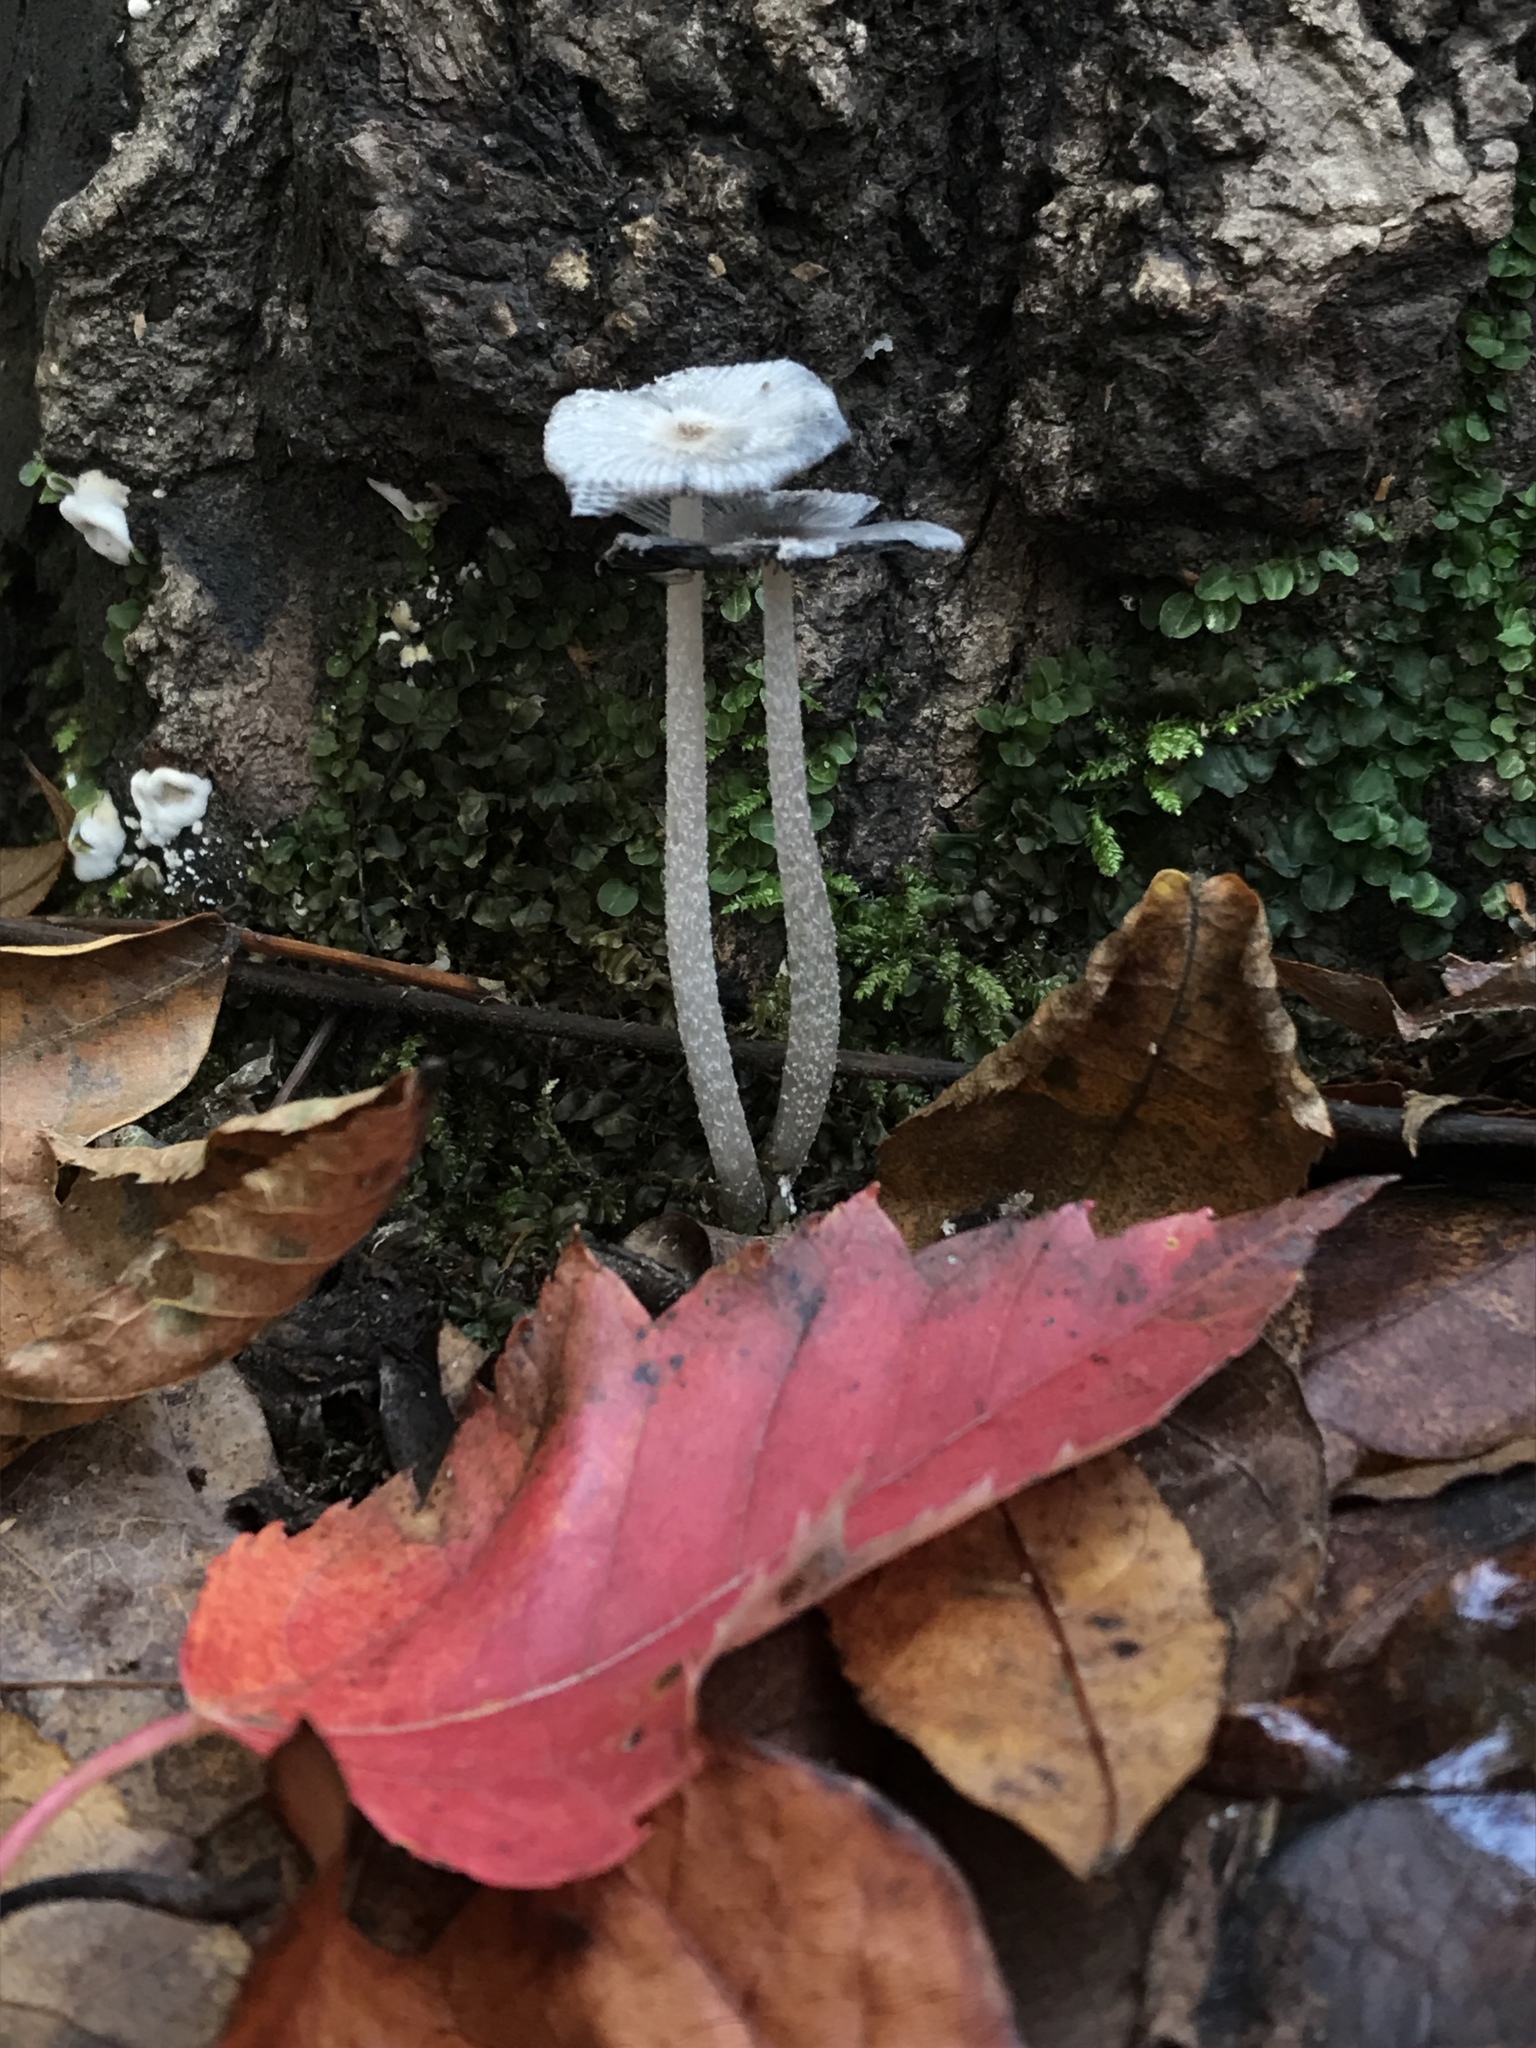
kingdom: Fungi
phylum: Basidiomycota
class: Agaricomycetes
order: Agaricales
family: Psathyrellaceae
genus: Coprinopsis
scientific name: Coprinopsis lagopus
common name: Hare'sfoot inkcap
